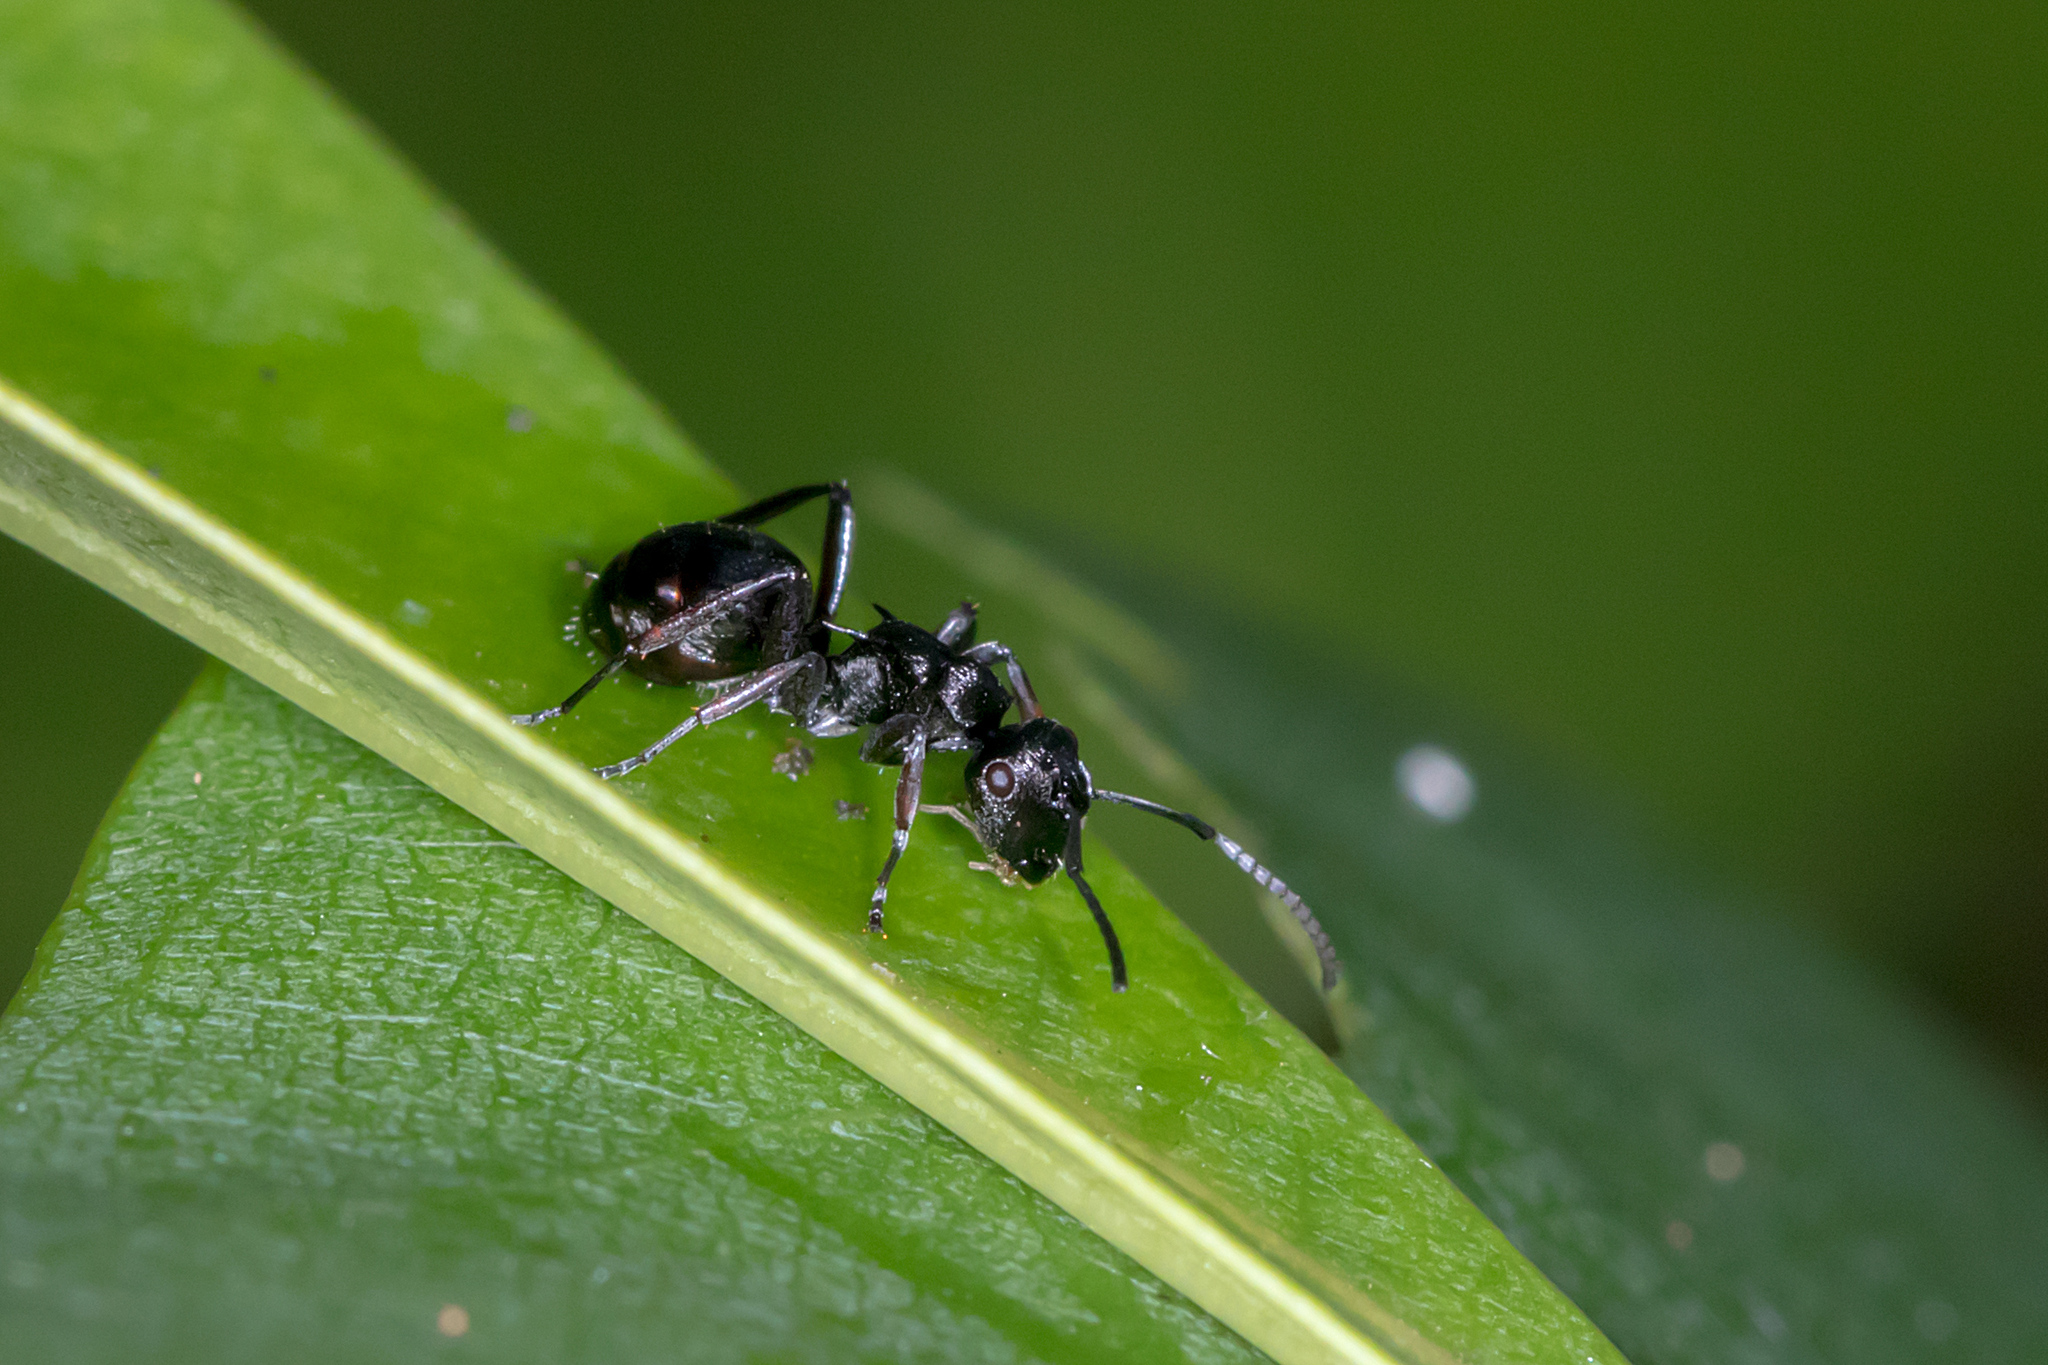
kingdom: Animalia
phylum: Arthropoda
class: Insecta
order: Hymenoptera
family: Formicidae
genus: Polyrhachis
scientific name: Polyrhachis clio
